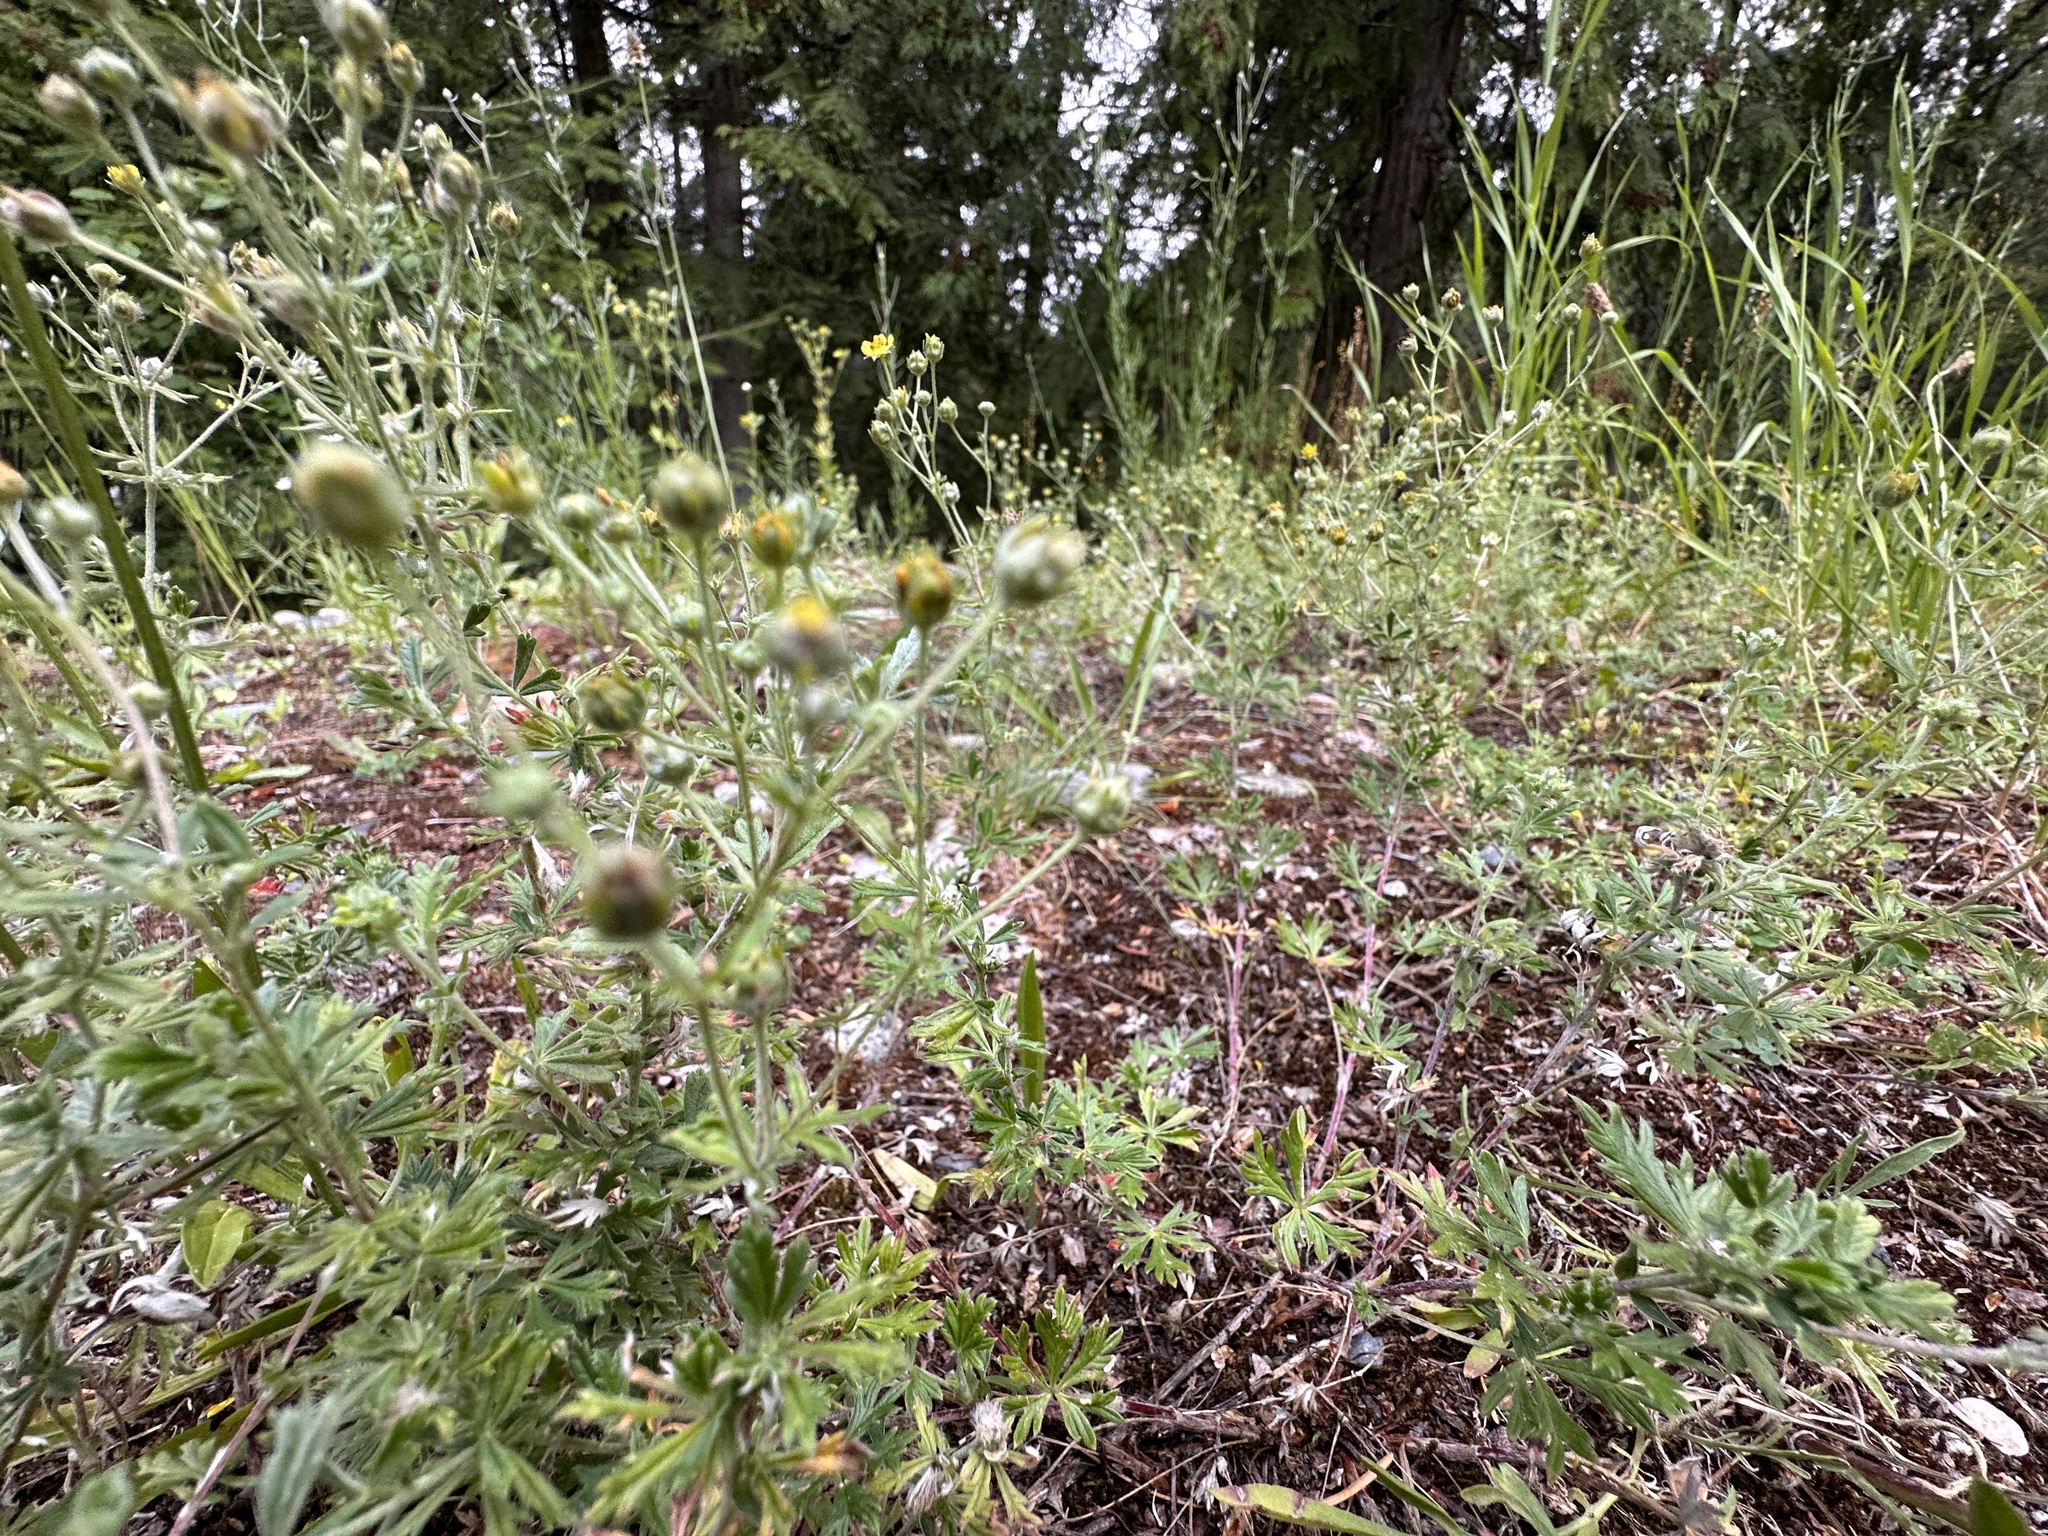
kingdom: Plantae
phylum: Tracheophyta
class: Magnoliopsida
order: Rosales
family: Rosaceae
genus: Potentilla
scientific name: Potentilla argentea
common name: Hoary cinquefoil
